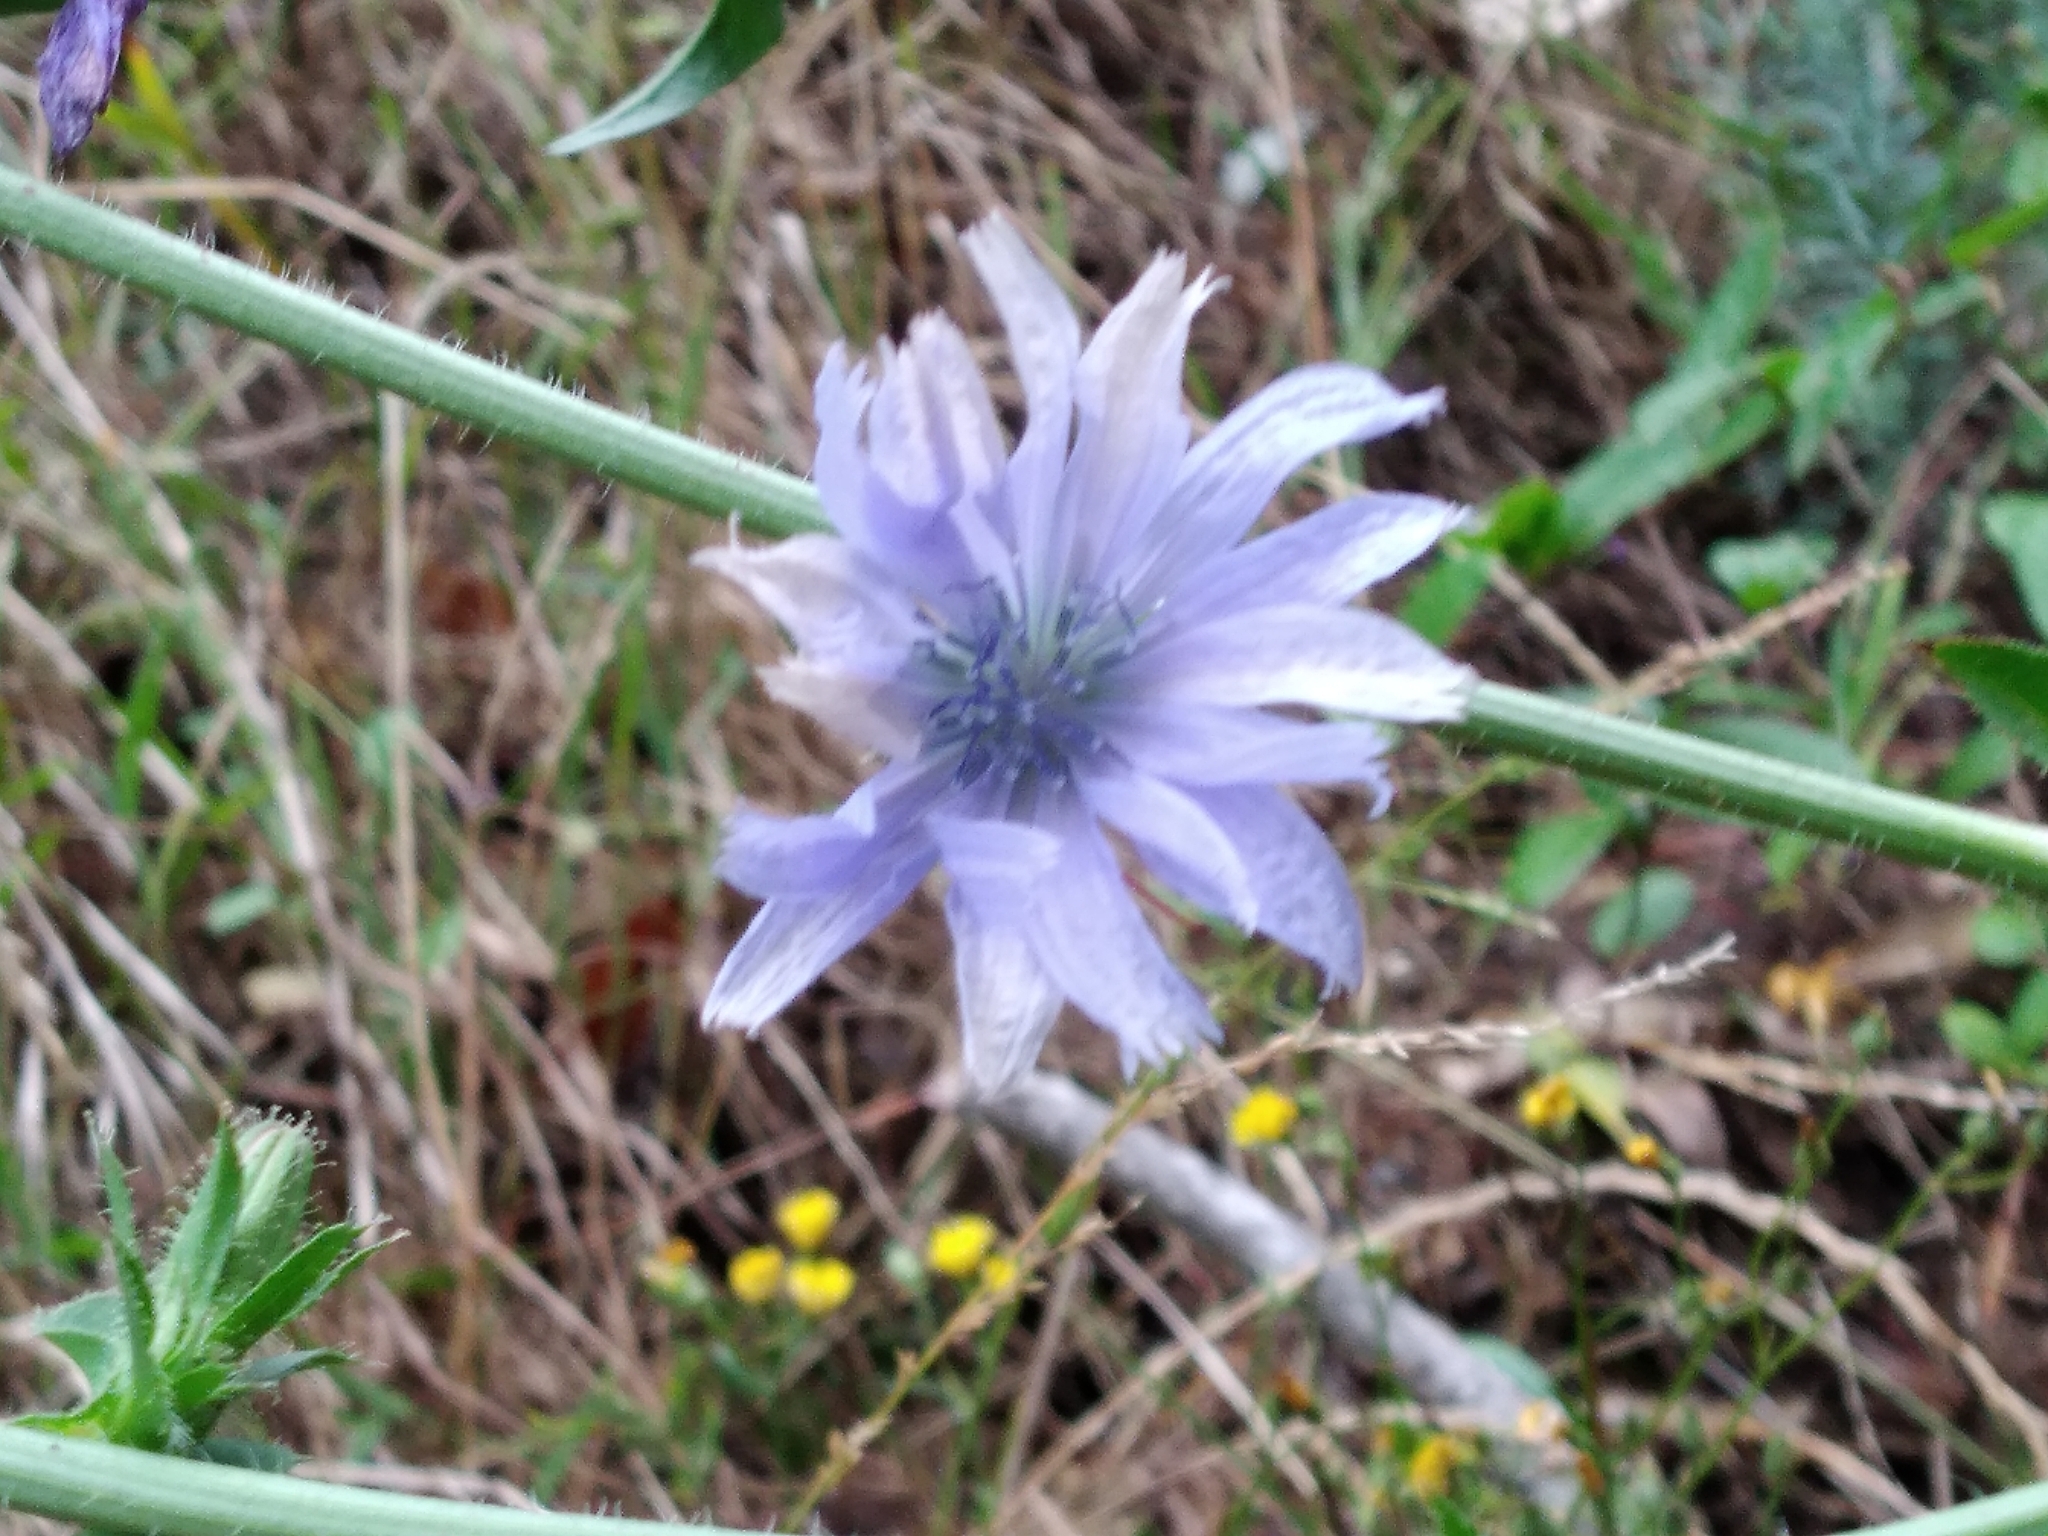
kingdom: Plantae
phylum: Tracheophyta
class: Magnoliopsida
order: Asterales
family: Asteraceae
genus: Cichorium
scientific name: Cichorium intybus
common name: Chicory
